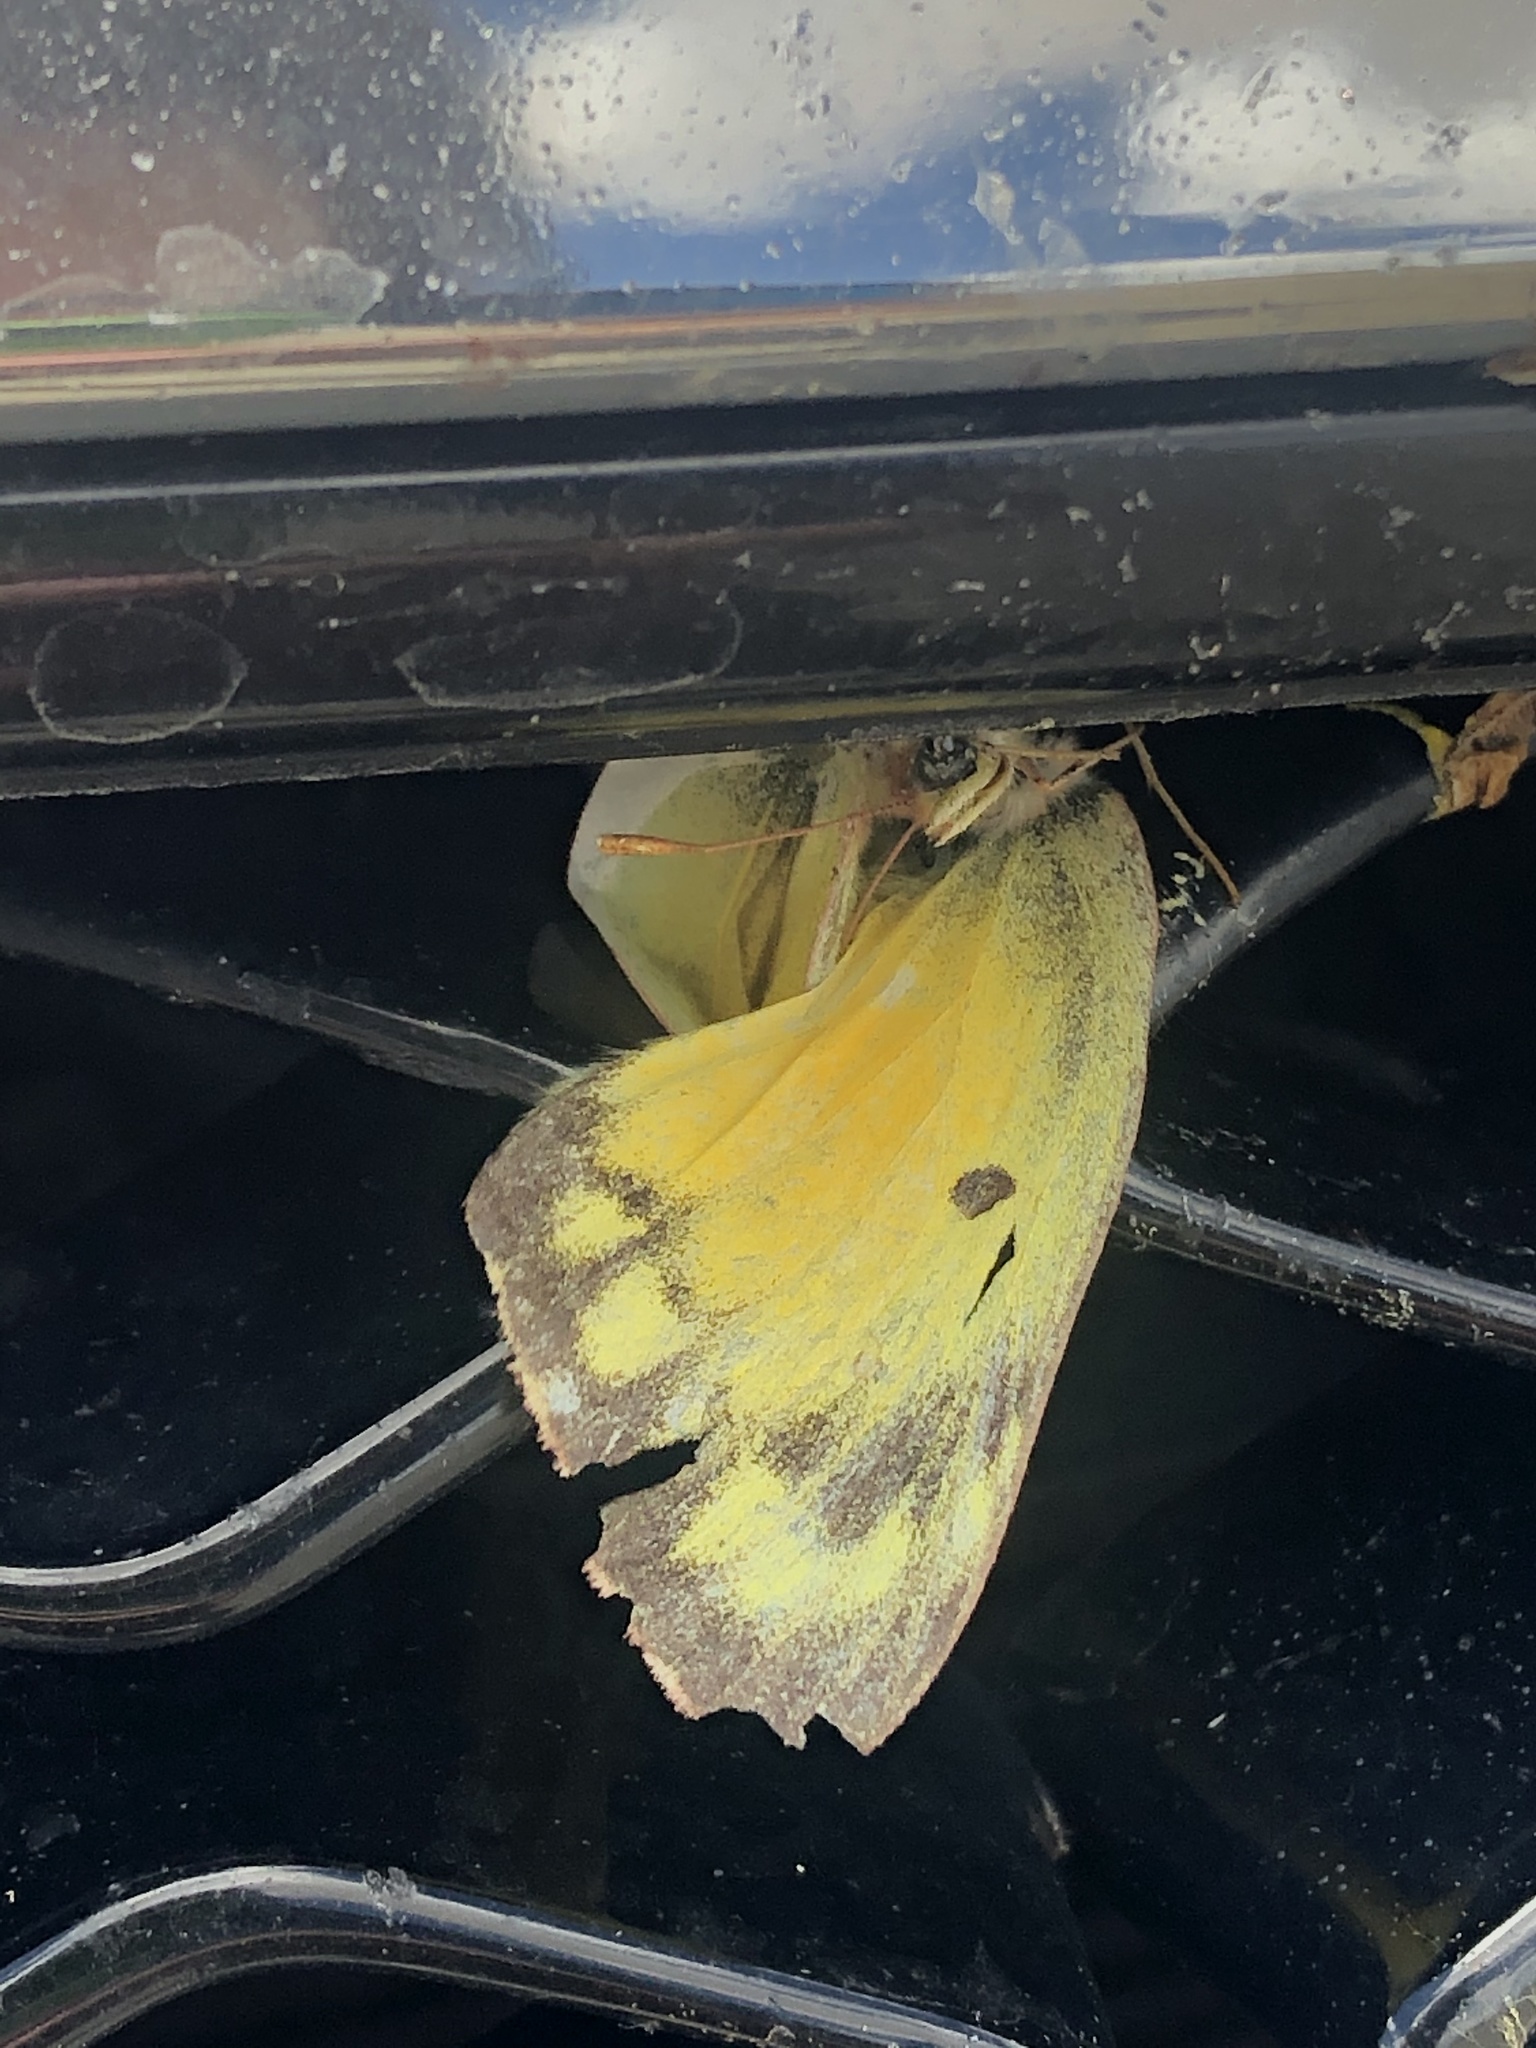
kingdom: Animalia
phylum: Arthropoda
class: Insecta
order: Lepidoptera
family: Pieridae
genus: Colias
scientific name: Colias eurytheme
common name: Alfalfa butterfly
